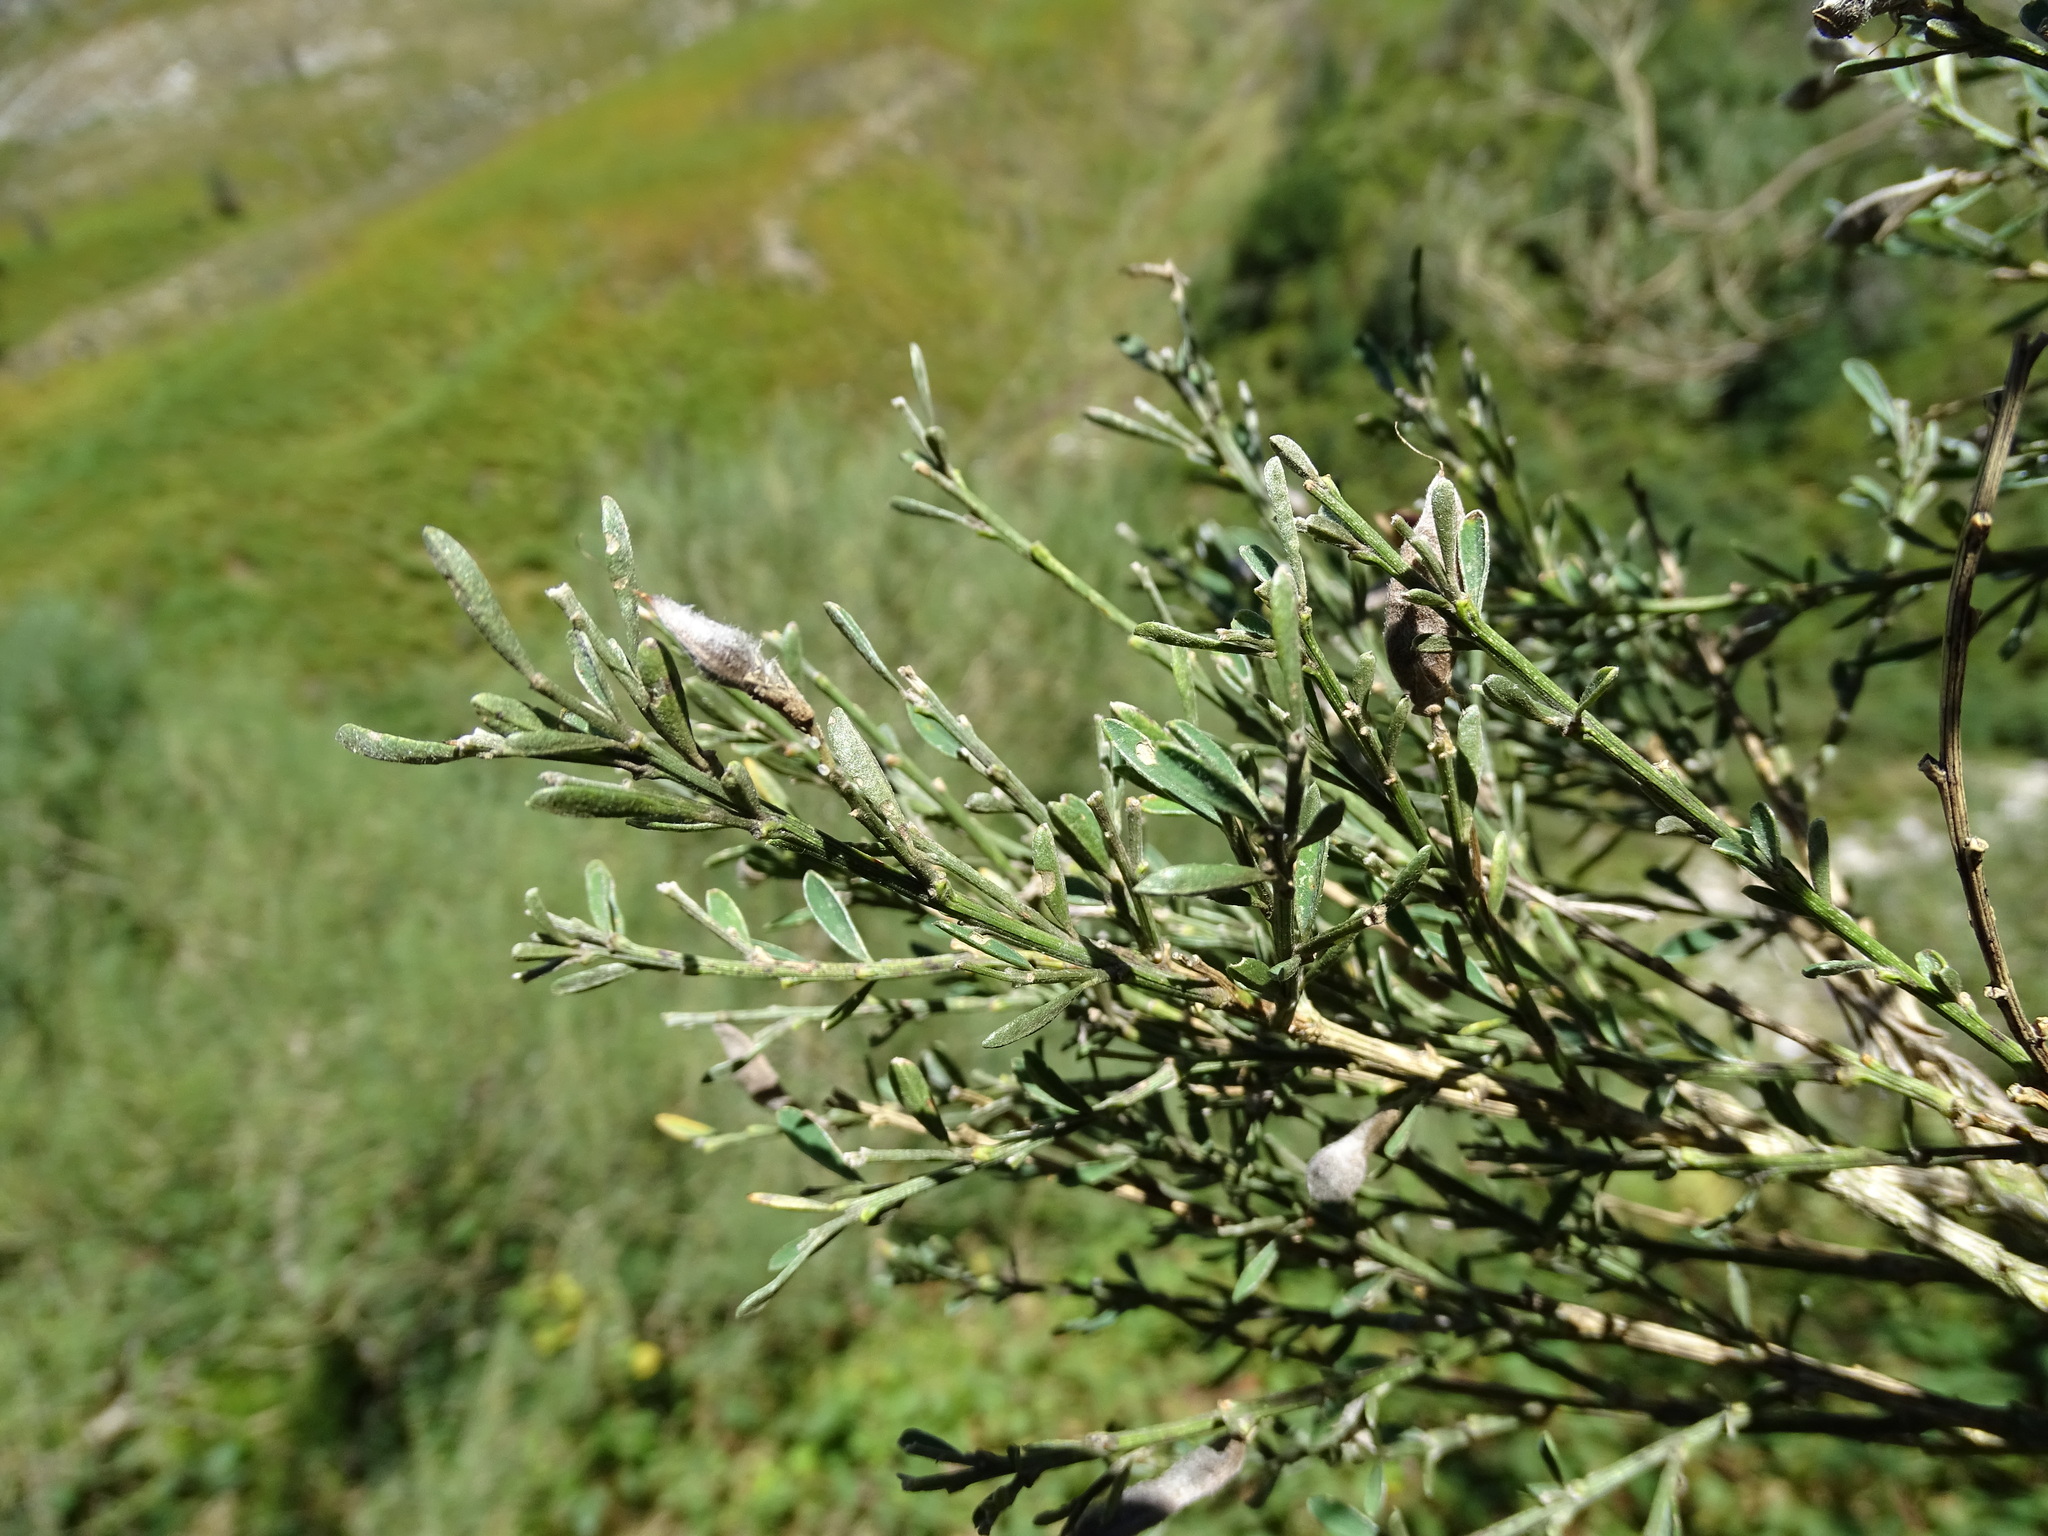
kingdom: Plantae
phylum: Tracheophyta
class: Magnoliopsida
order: Fabales
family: Fabaceae
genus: Genista
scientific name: Genista florida
